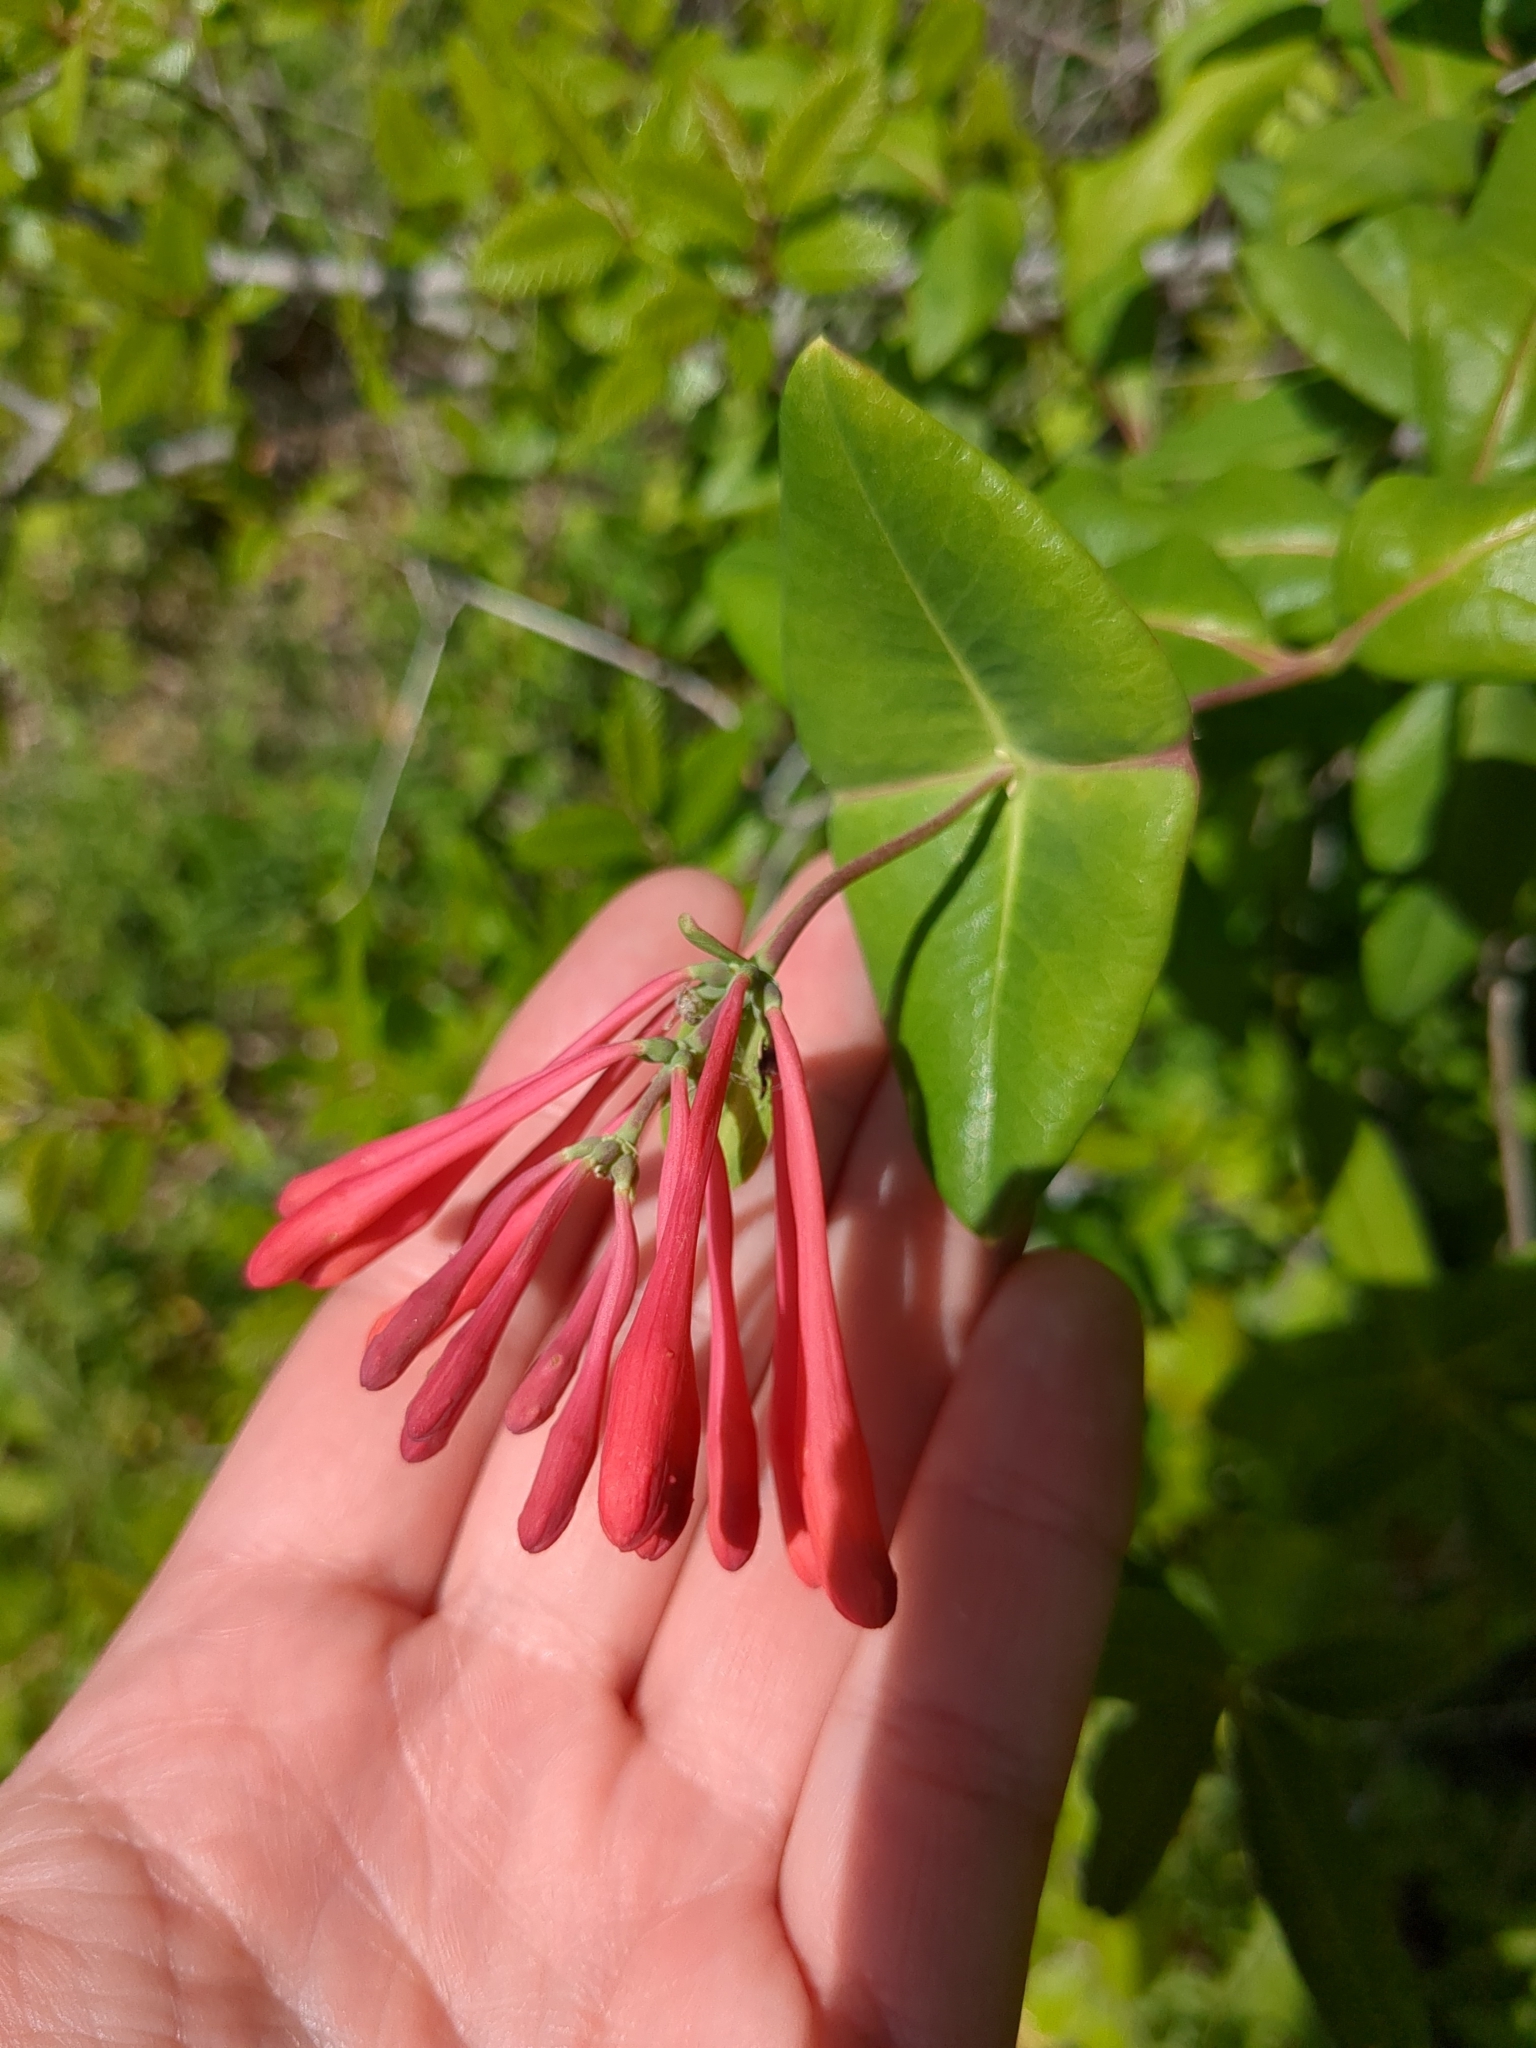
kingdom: Plantae
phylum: Tracheophyta
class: Magnoliopsida
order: Dipsacales
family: Caprifoliaceae
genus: Lonicera
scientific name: Lonicera sempervirens
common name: Coral honeysuckle
